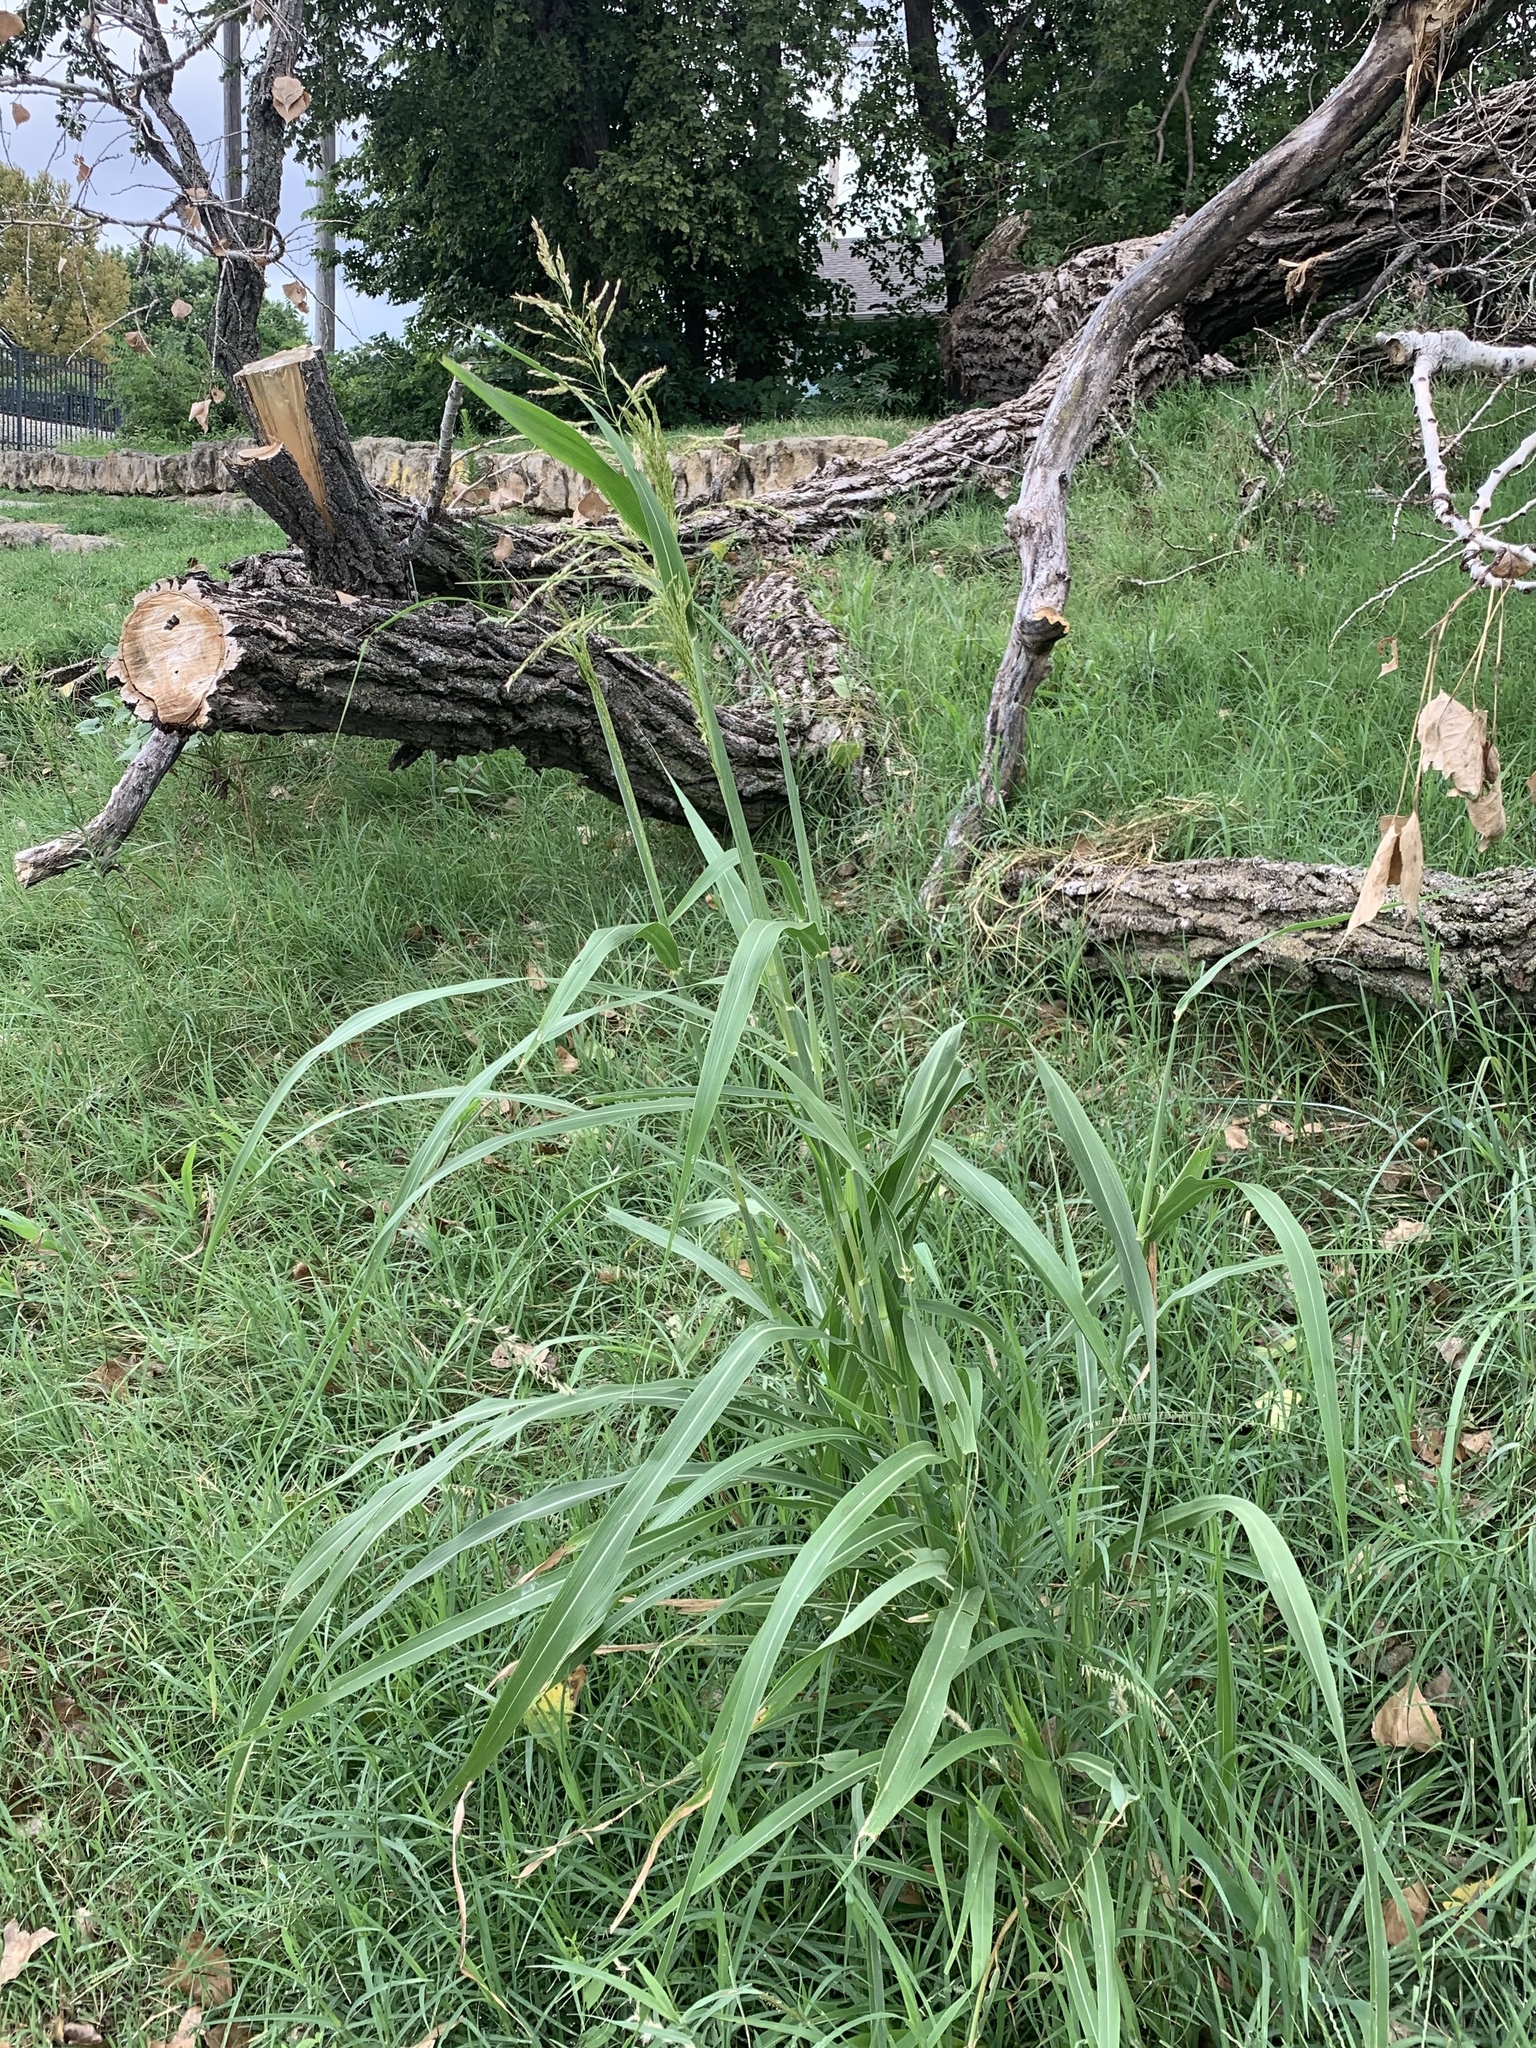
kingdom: Plantae
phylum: Tracheophyta
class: Liliopsida
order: Poales
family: Poaceae
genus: Sorghum
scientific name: Sorghum halepense
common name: Johnson-grass
